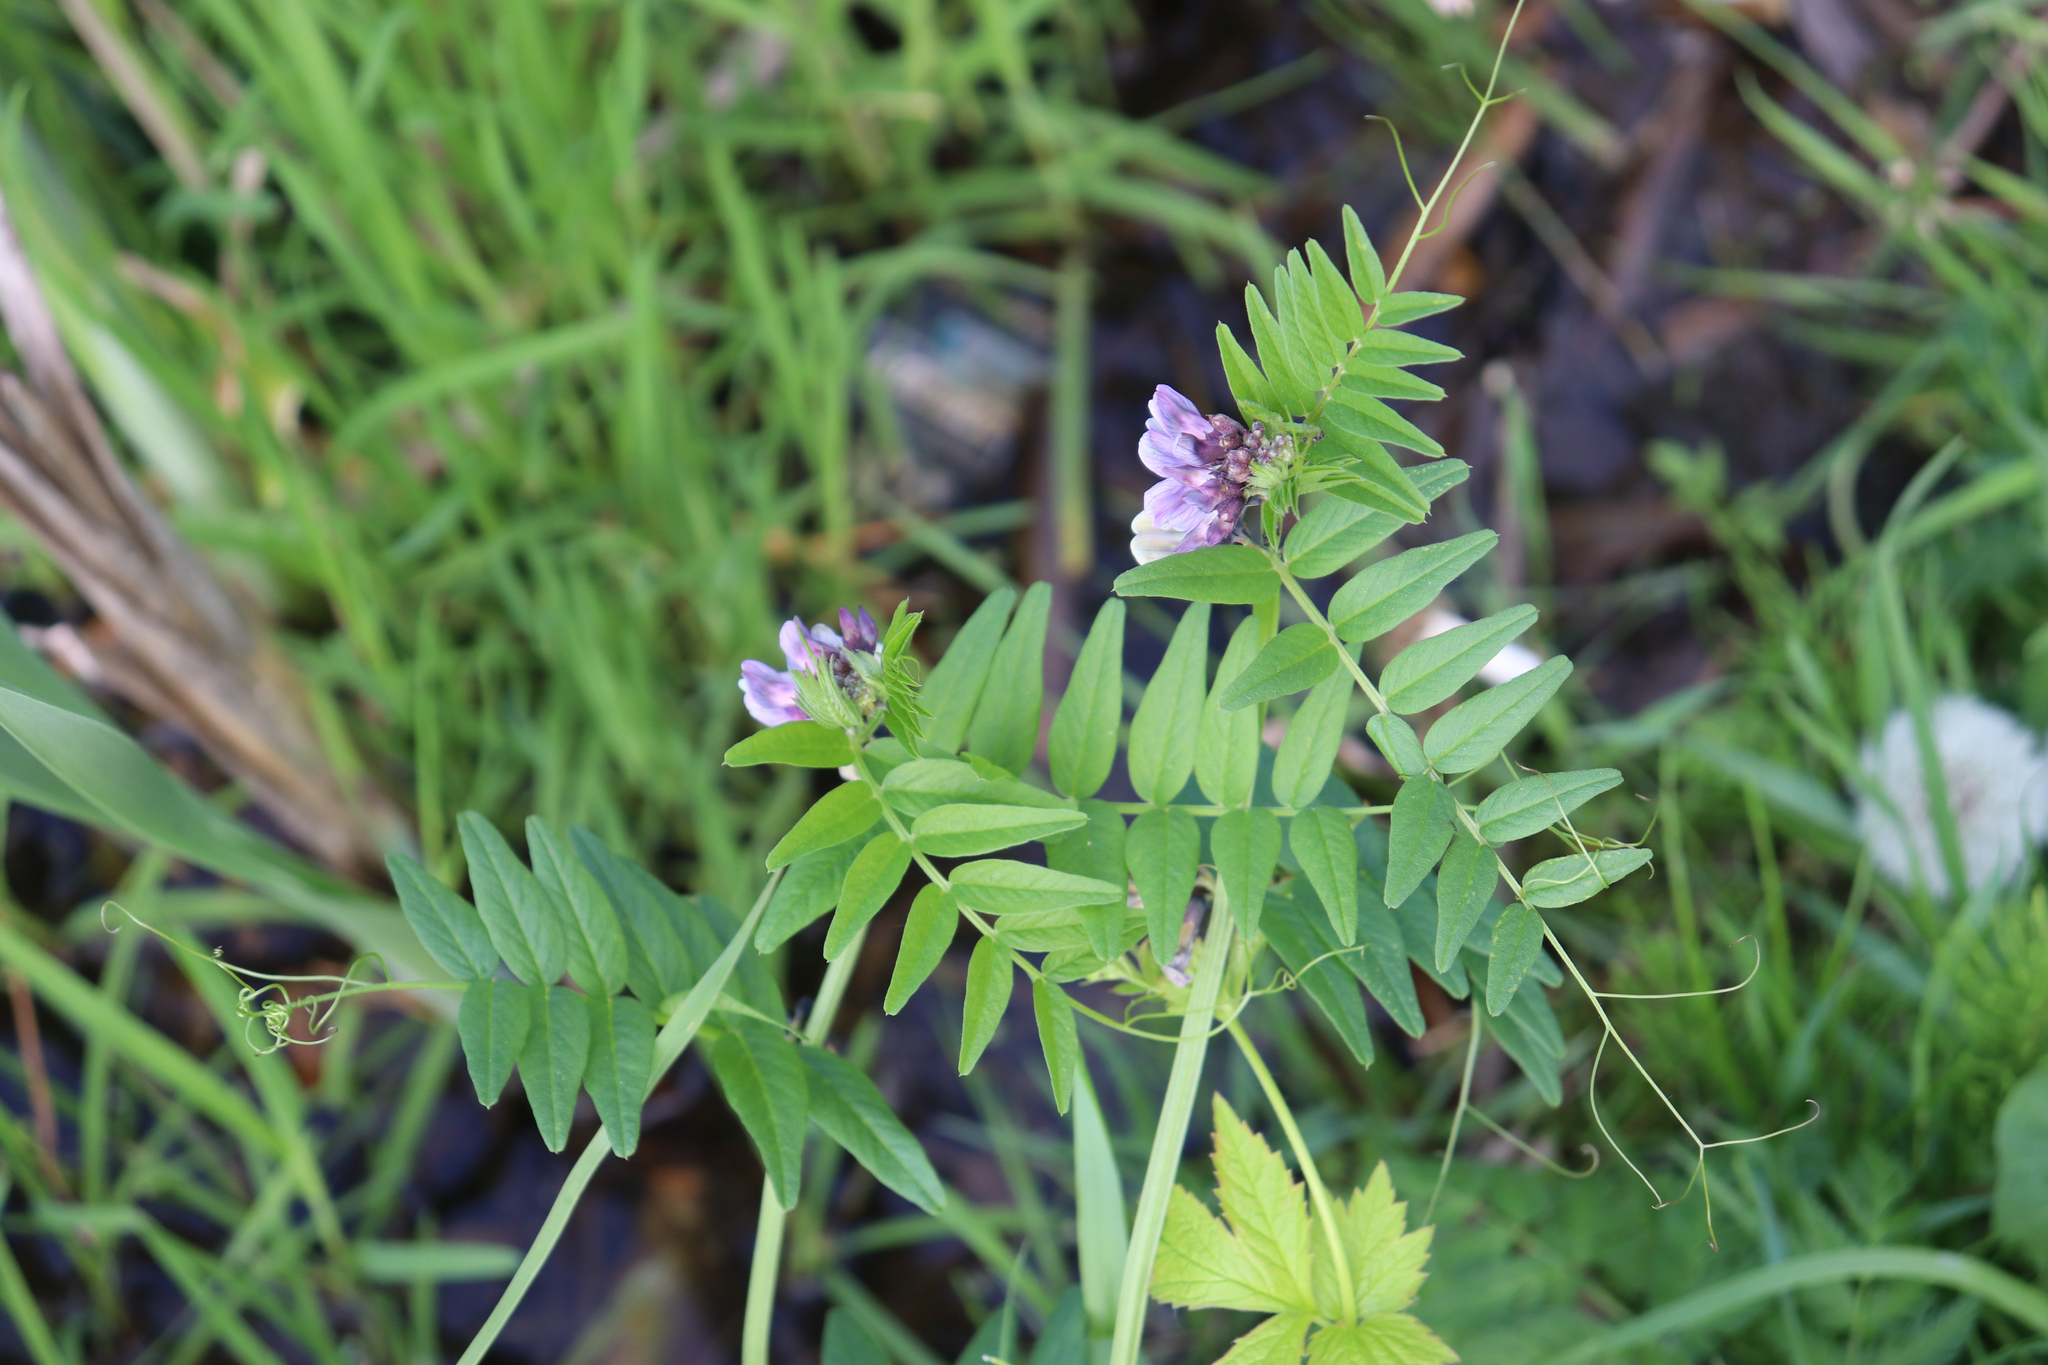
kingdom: Plantae
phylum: Tracheophyta
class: Magnoliopsida
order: Fabales
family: Fabaceae
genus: Vicia
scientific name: Vicia sepium
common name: Bush vetch
